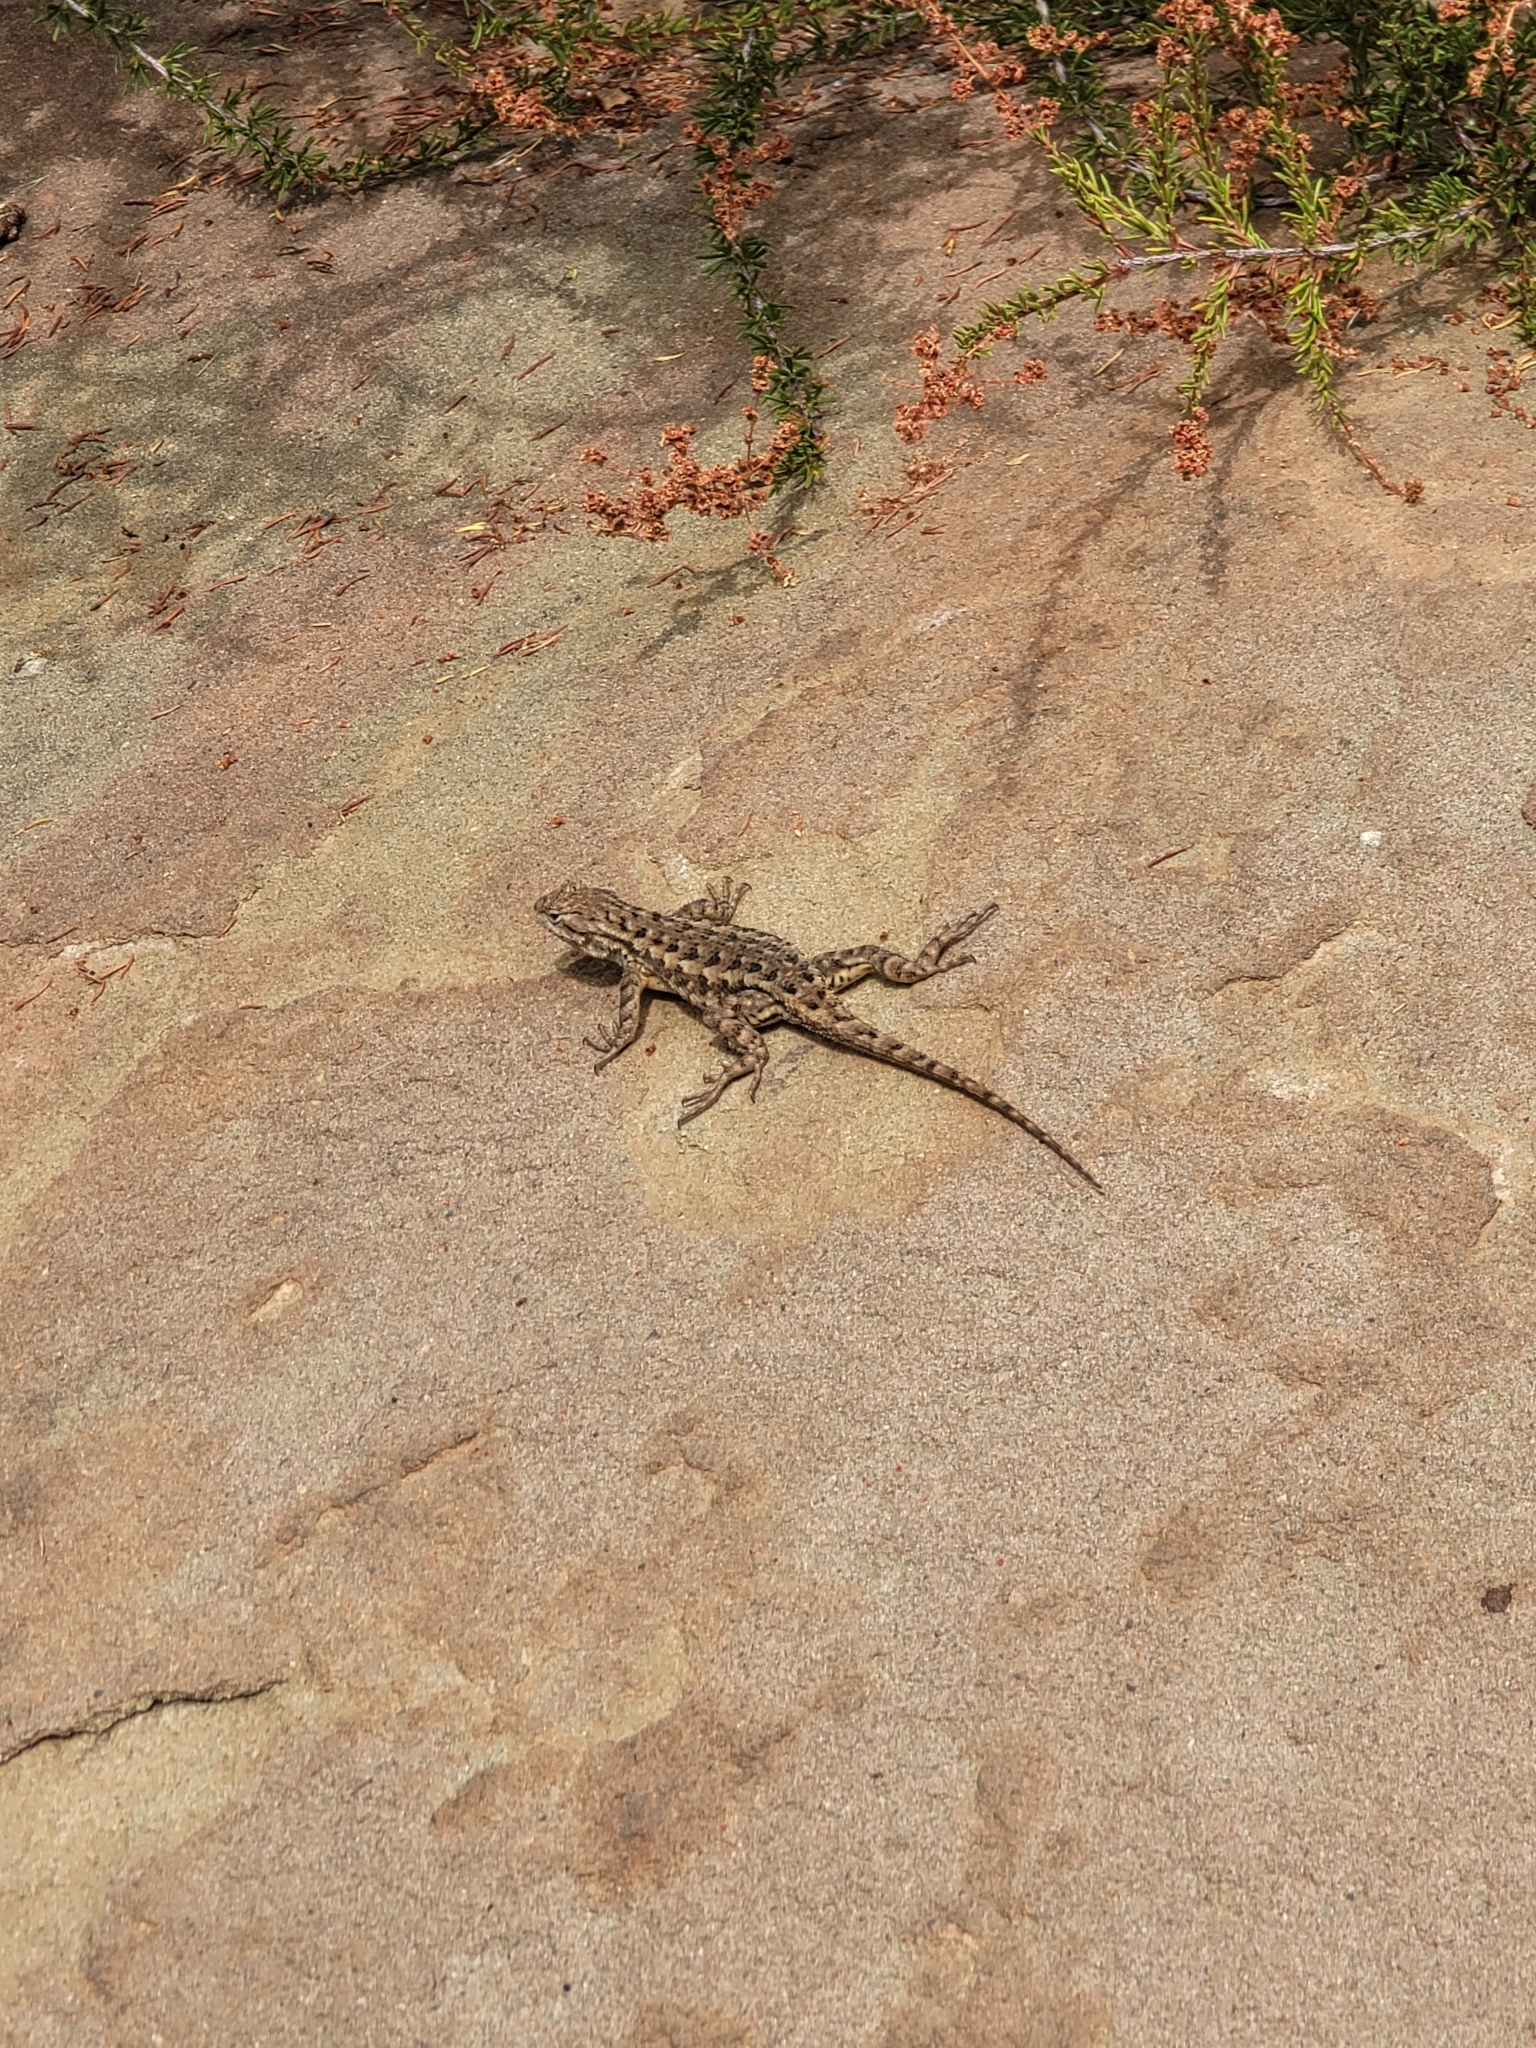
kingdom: Animalia
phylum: Chordata
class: Squamata
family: Phrynosomatidae
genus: Sceloporus
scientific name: Sceloporus occidentalis
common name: Western fence lizard
